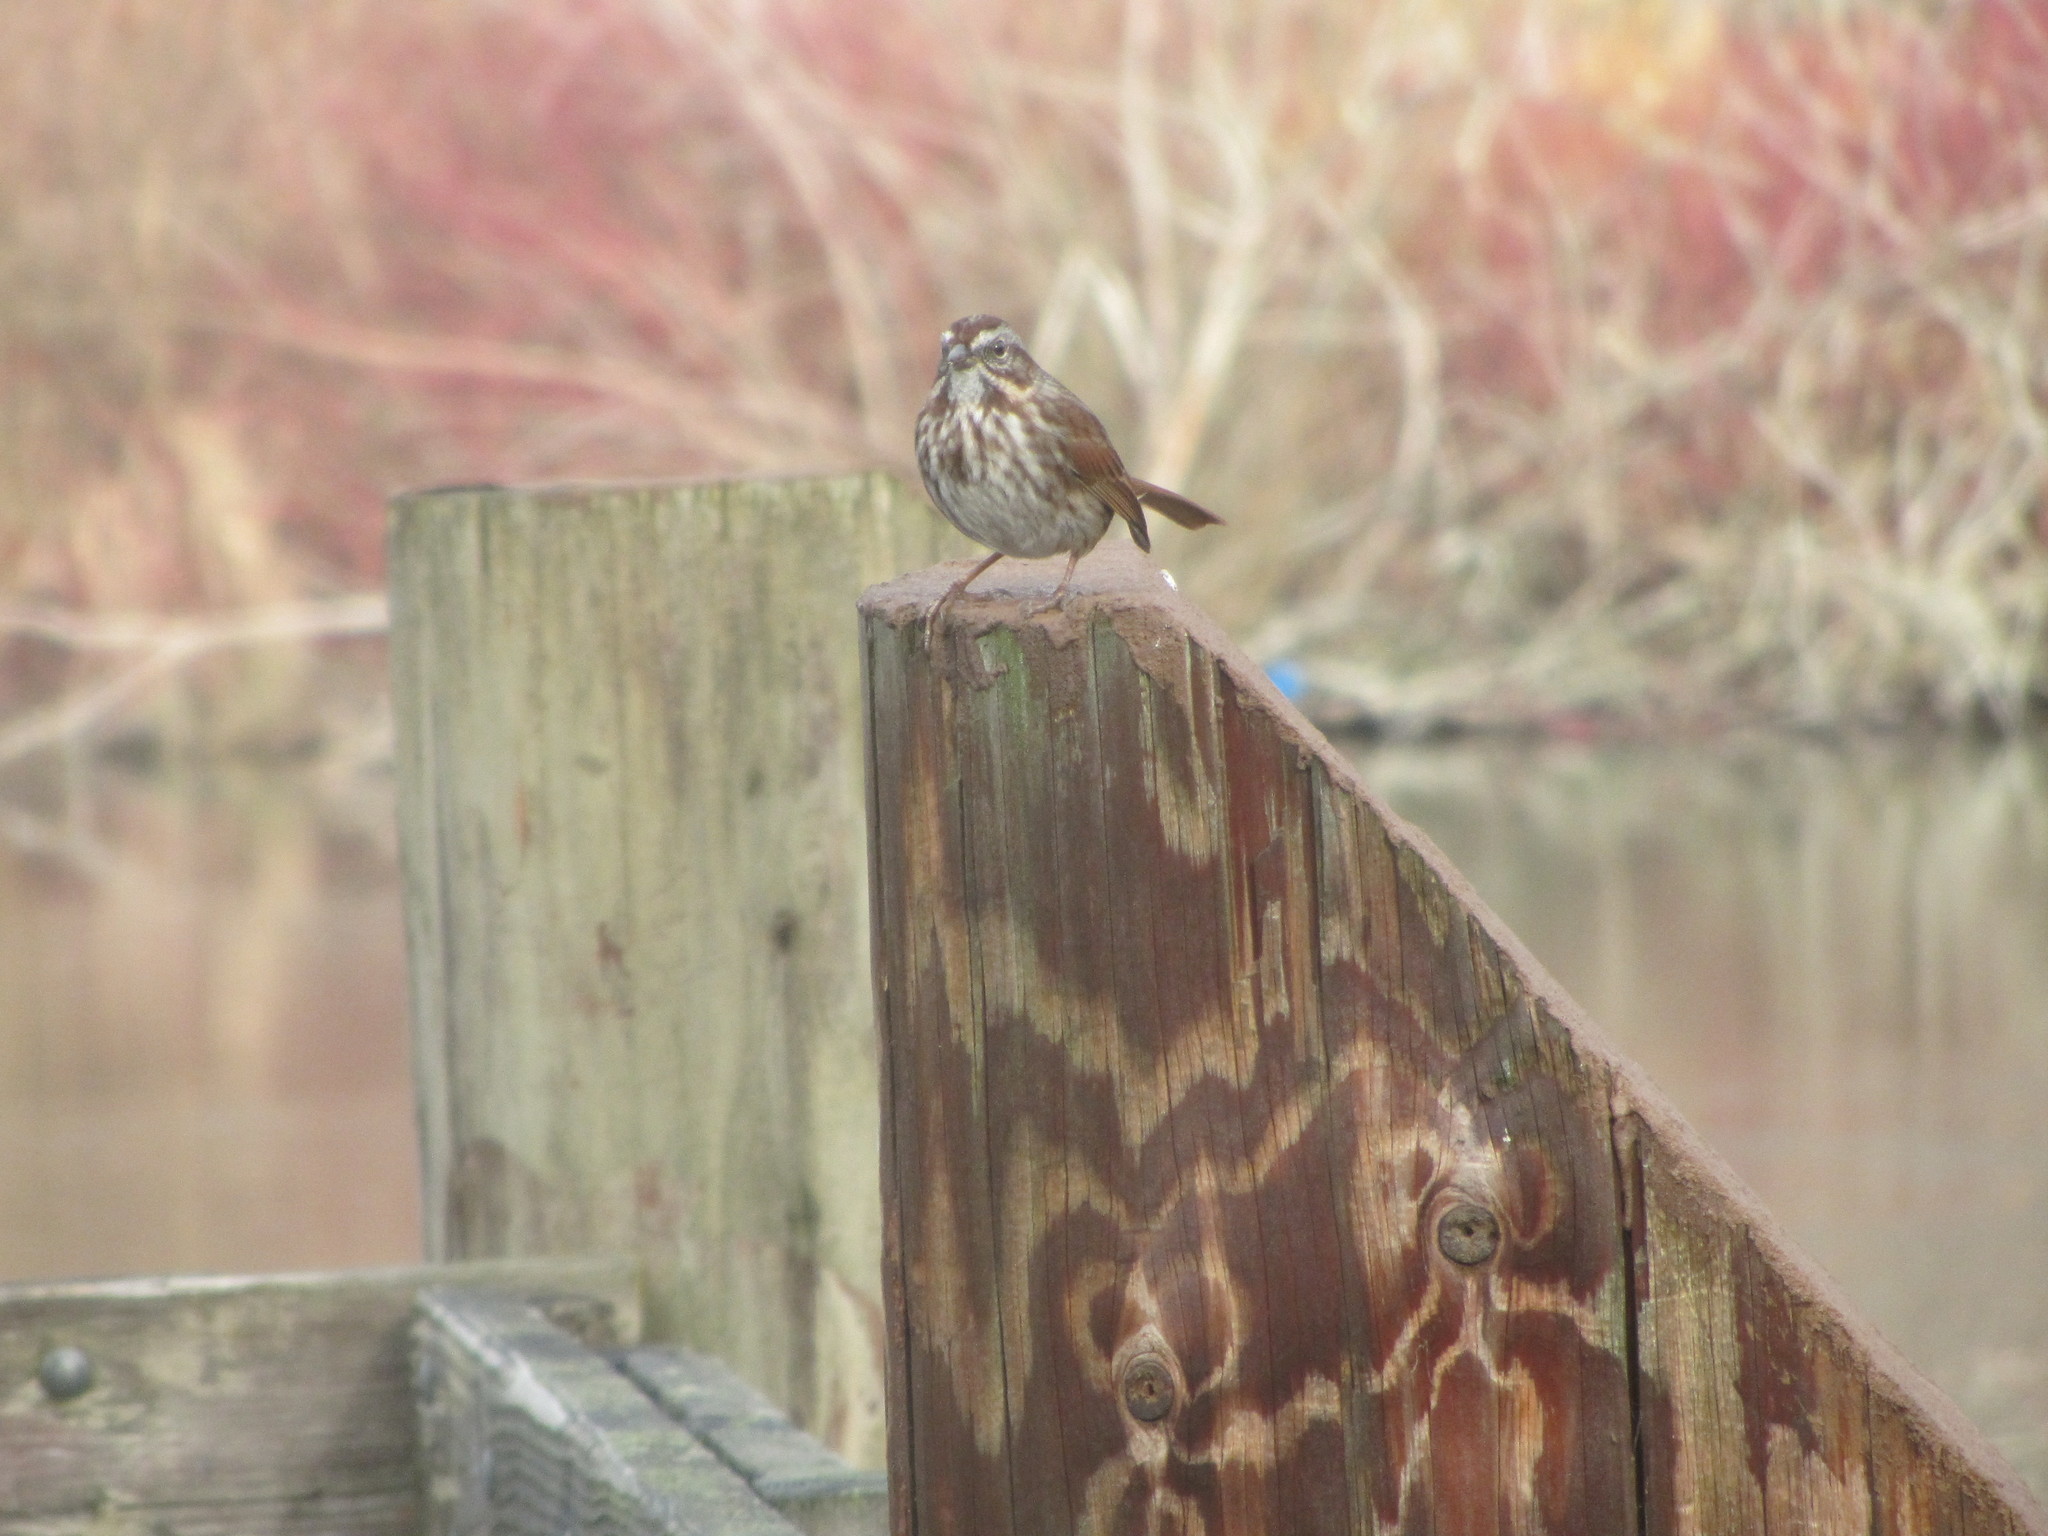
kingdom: Animalia
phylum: Chordata
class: Aves
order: Passeriformes
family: Passerellidae
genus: Melospiza
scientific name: Melospiza melodia
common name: Song sparrow
